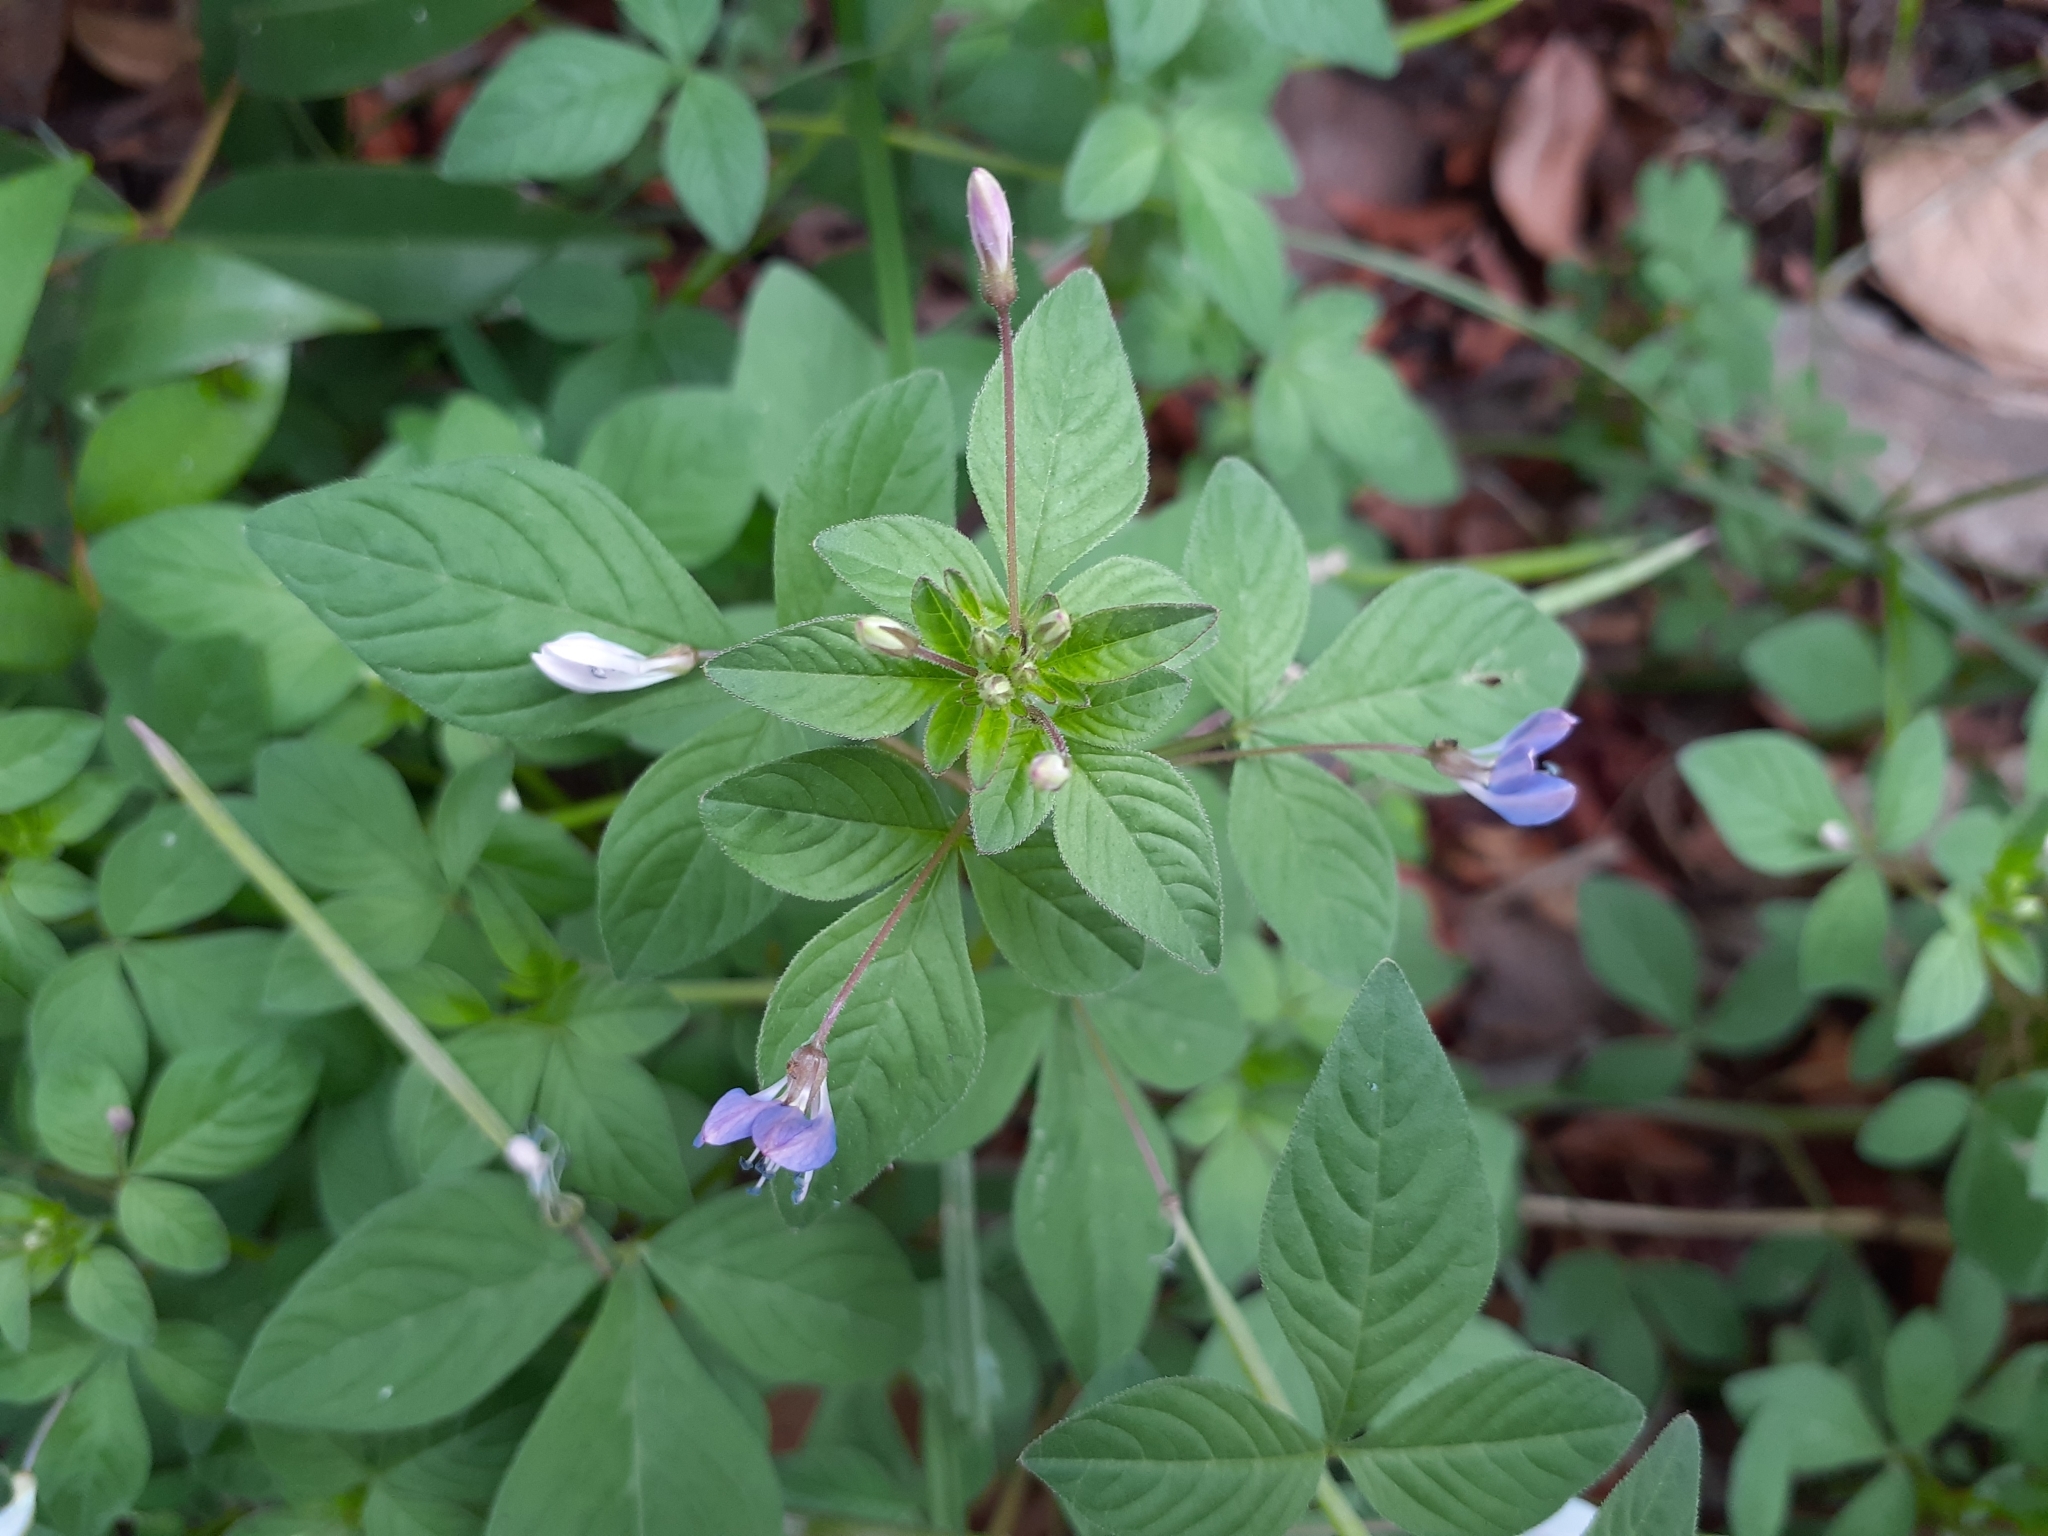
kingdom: Plantae
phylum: Tracheophyta
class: Magnoliopsida
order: Brassicales
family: Cleomaceae
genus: Sieruela
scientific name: Sieruela rutidosperma
